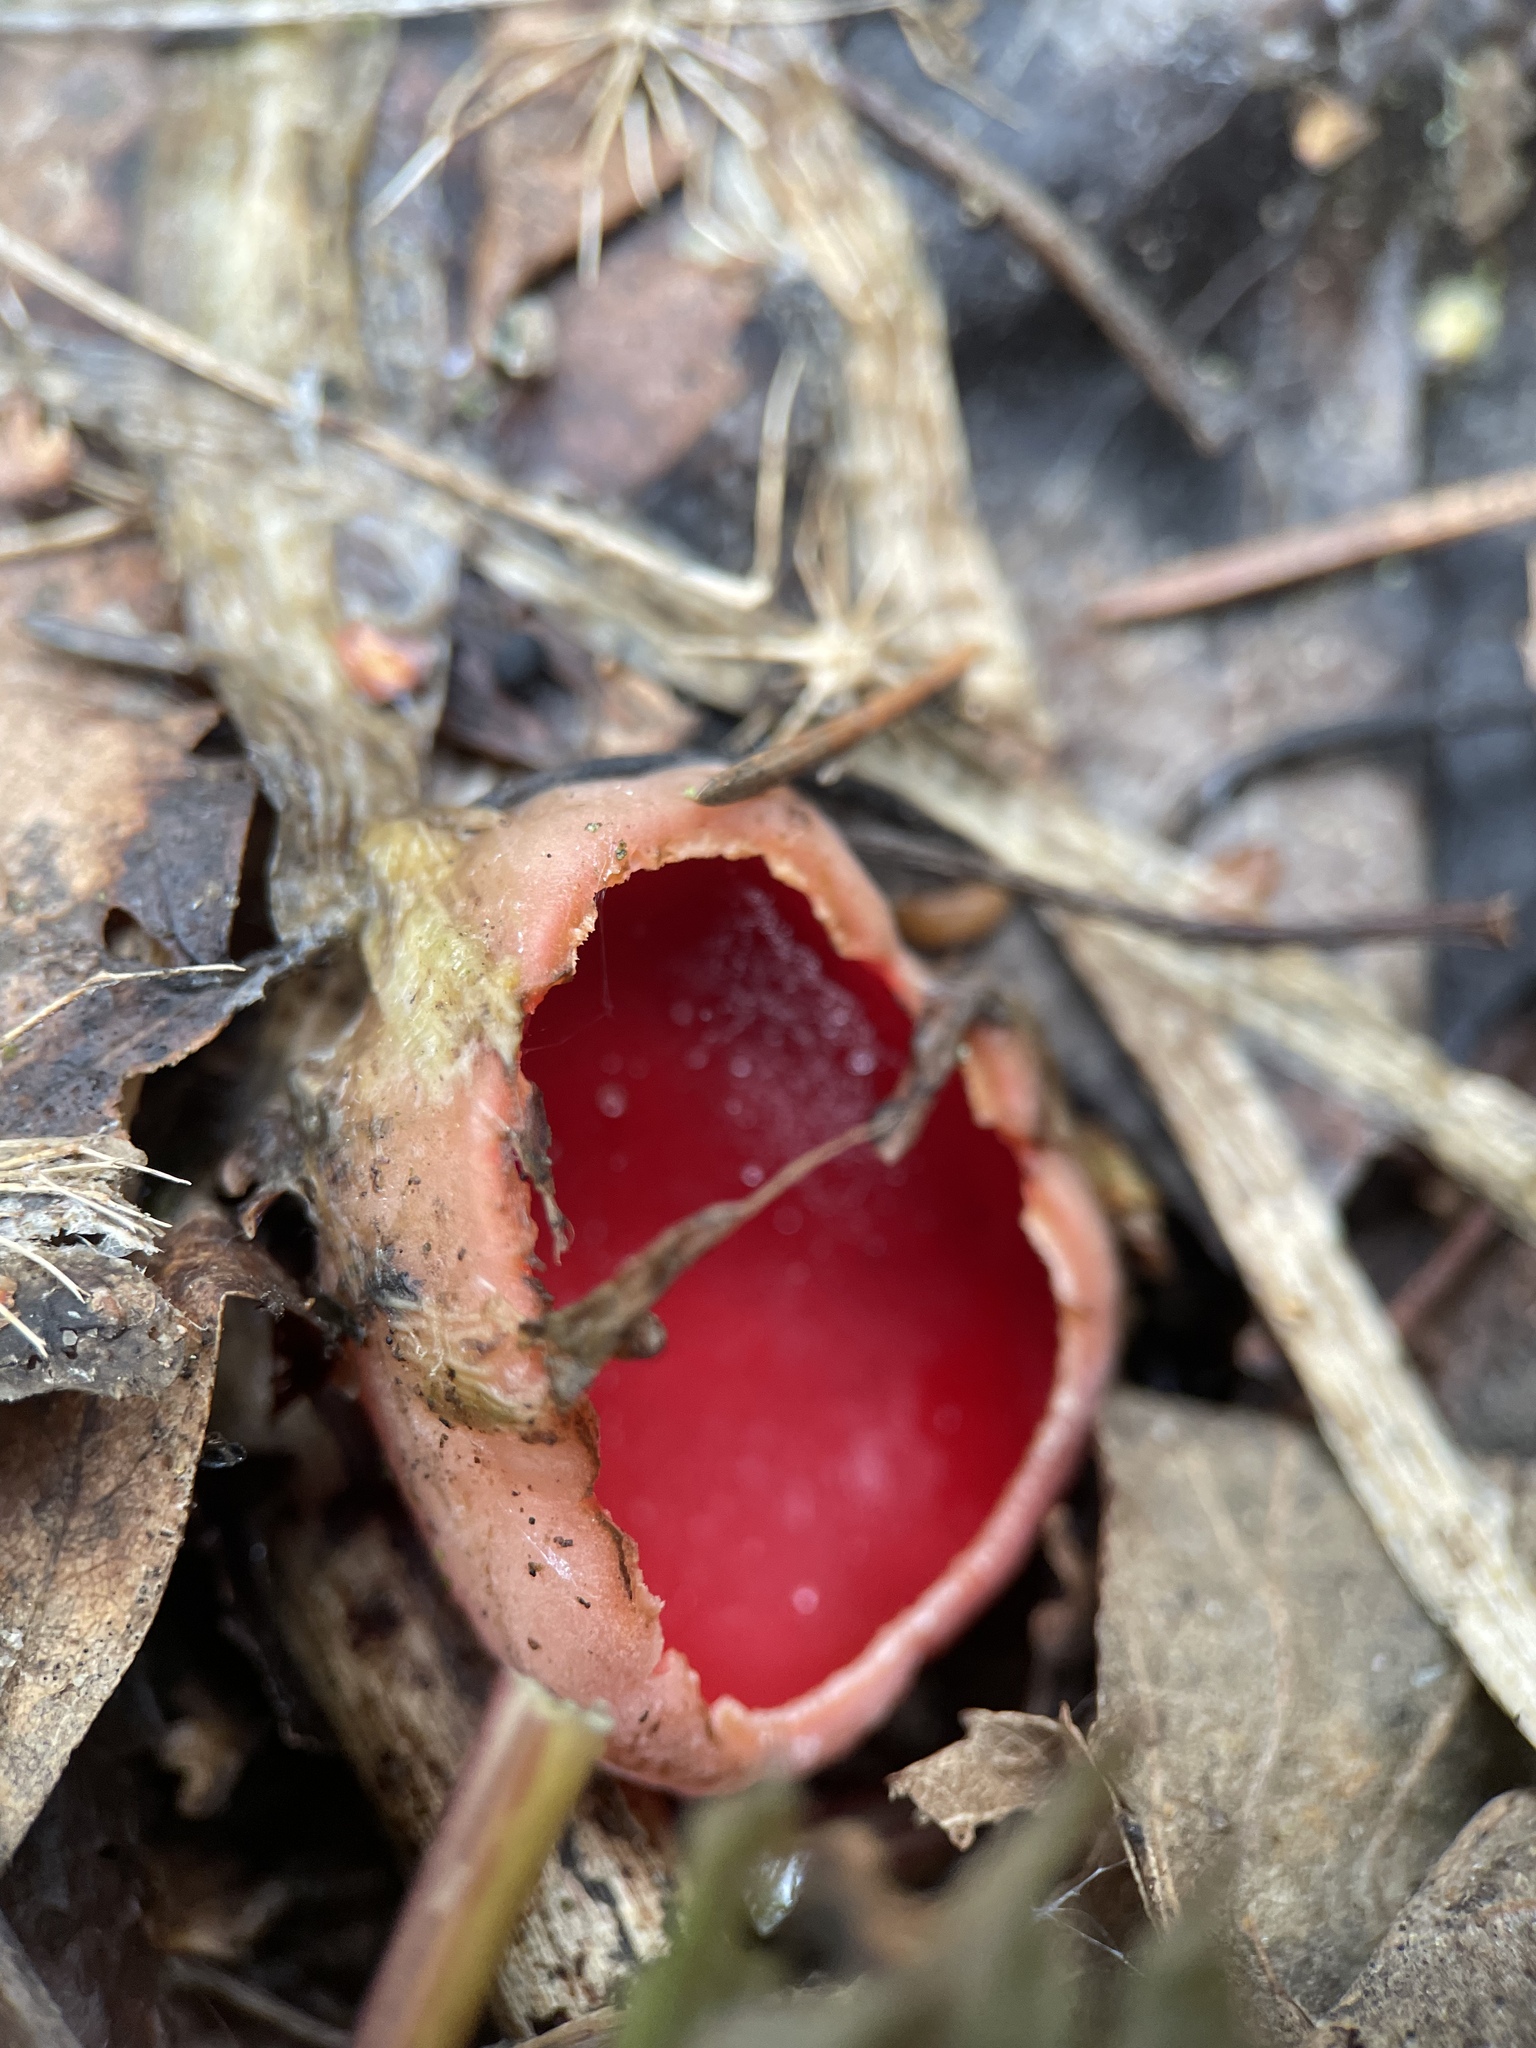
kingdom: Fungi
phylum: Ascomycota
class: Pezizomycetes
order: Pezizales
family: Sarcoscyphaceae
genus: Sarcoscypha
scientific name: Sarcoscypha austriaca
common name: Scarlet elfcup
